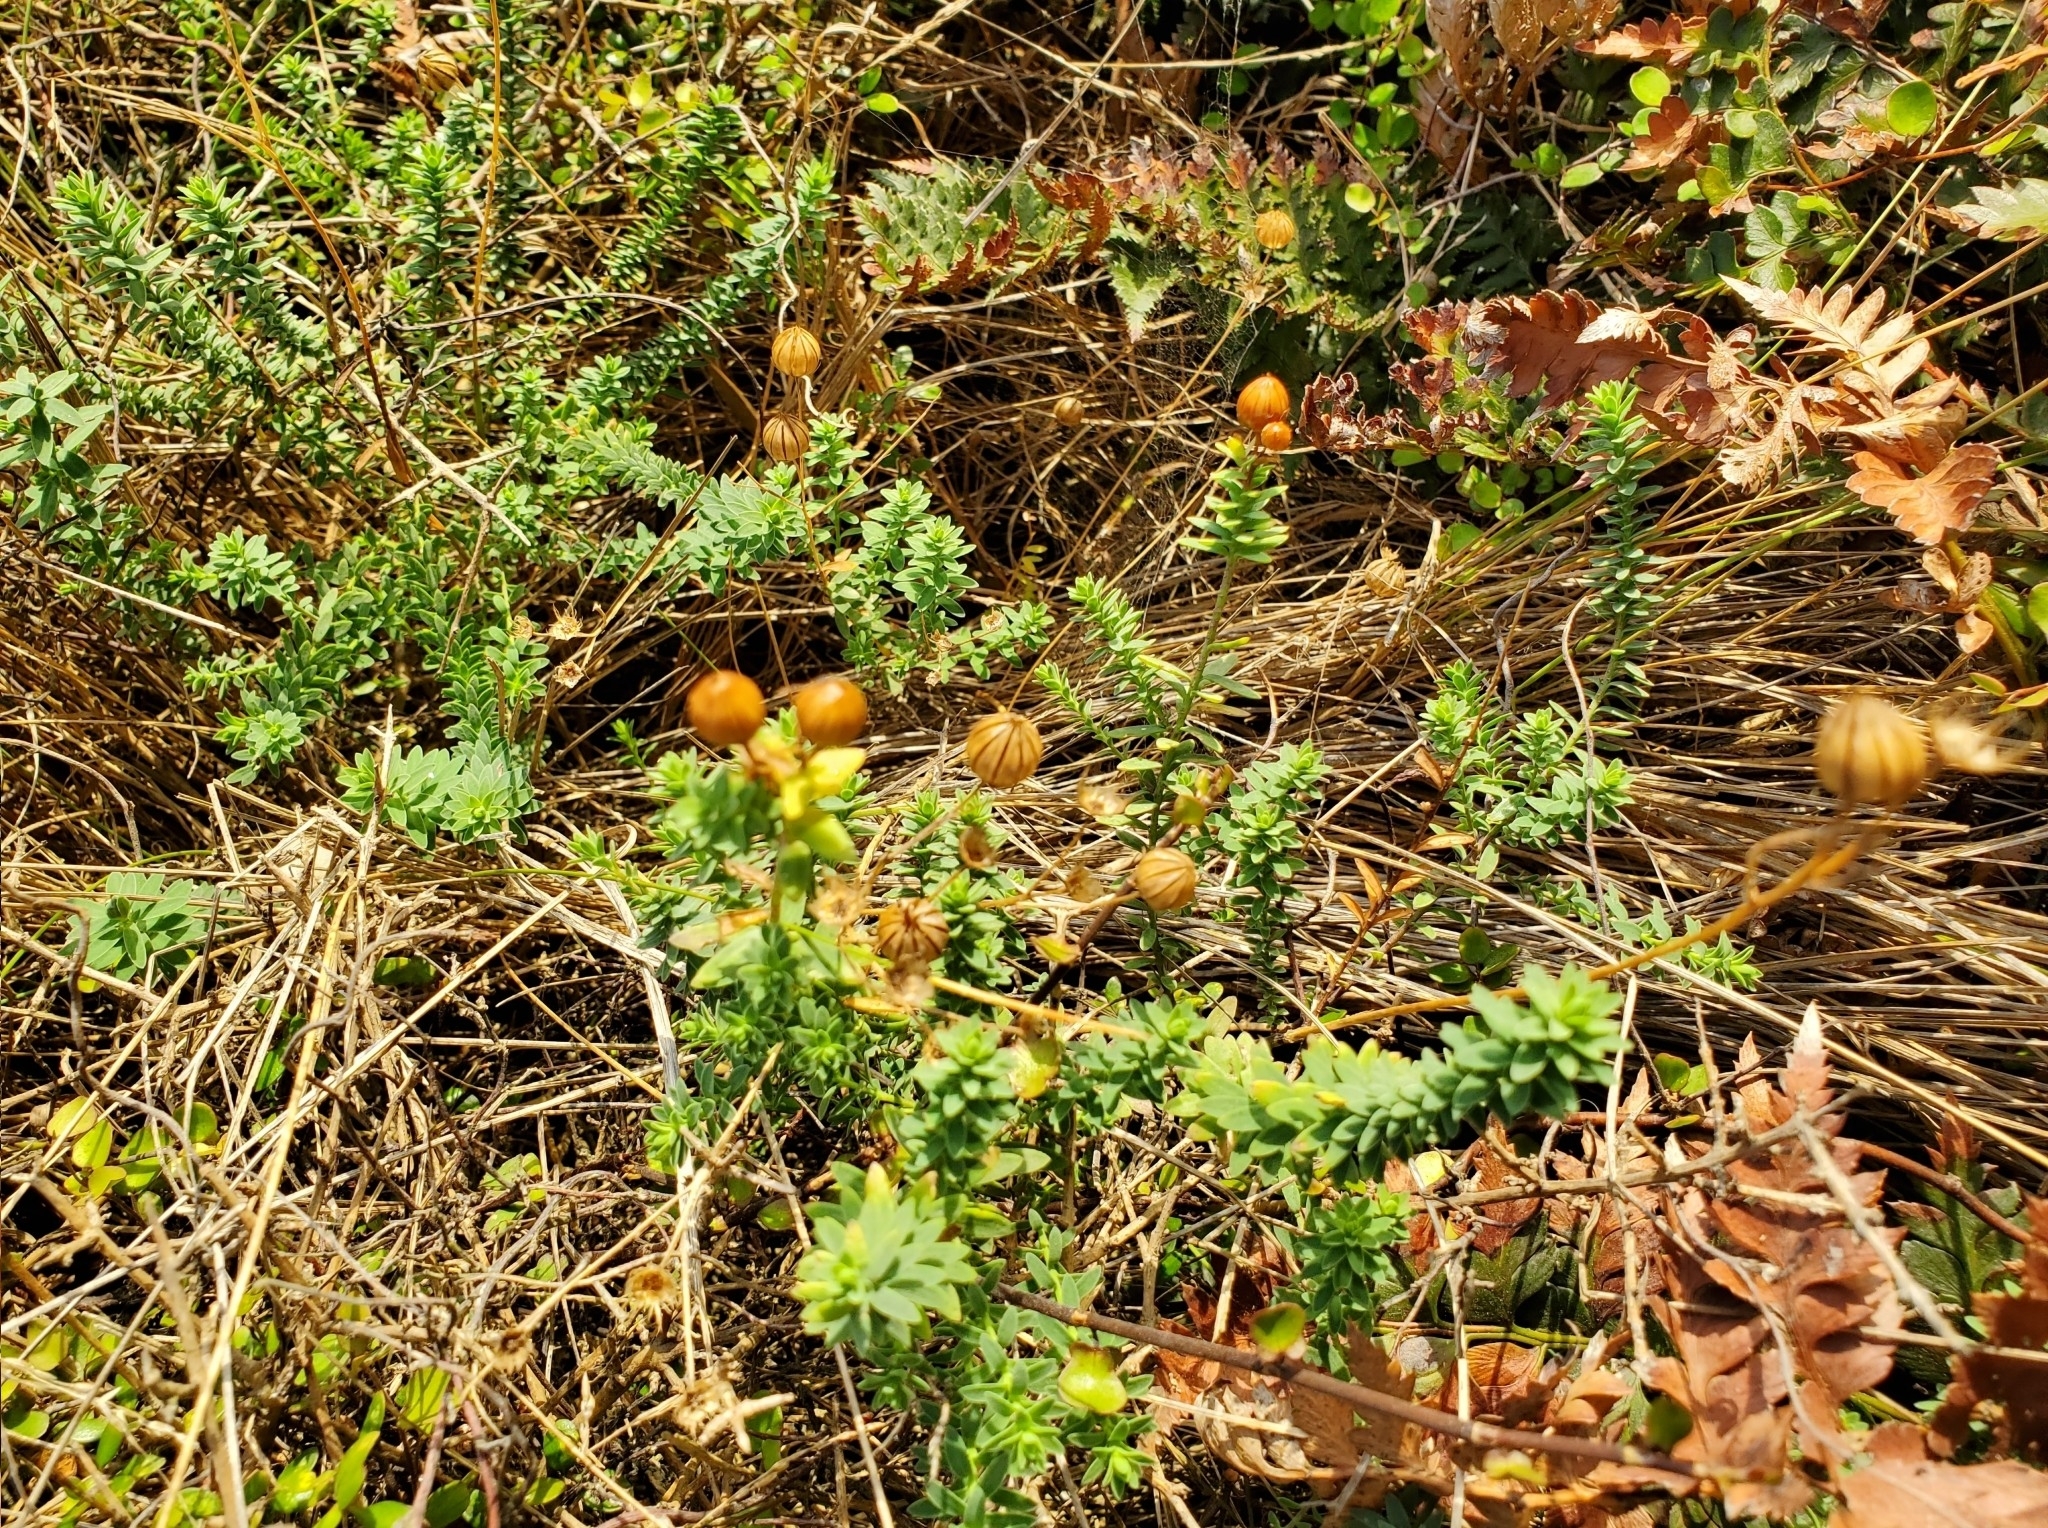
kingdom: Plantae
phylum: Tracheophyta
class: Magnoliopsida
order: Malpighiales
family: Linaceae
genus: Linum
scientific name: Linum monogynum
